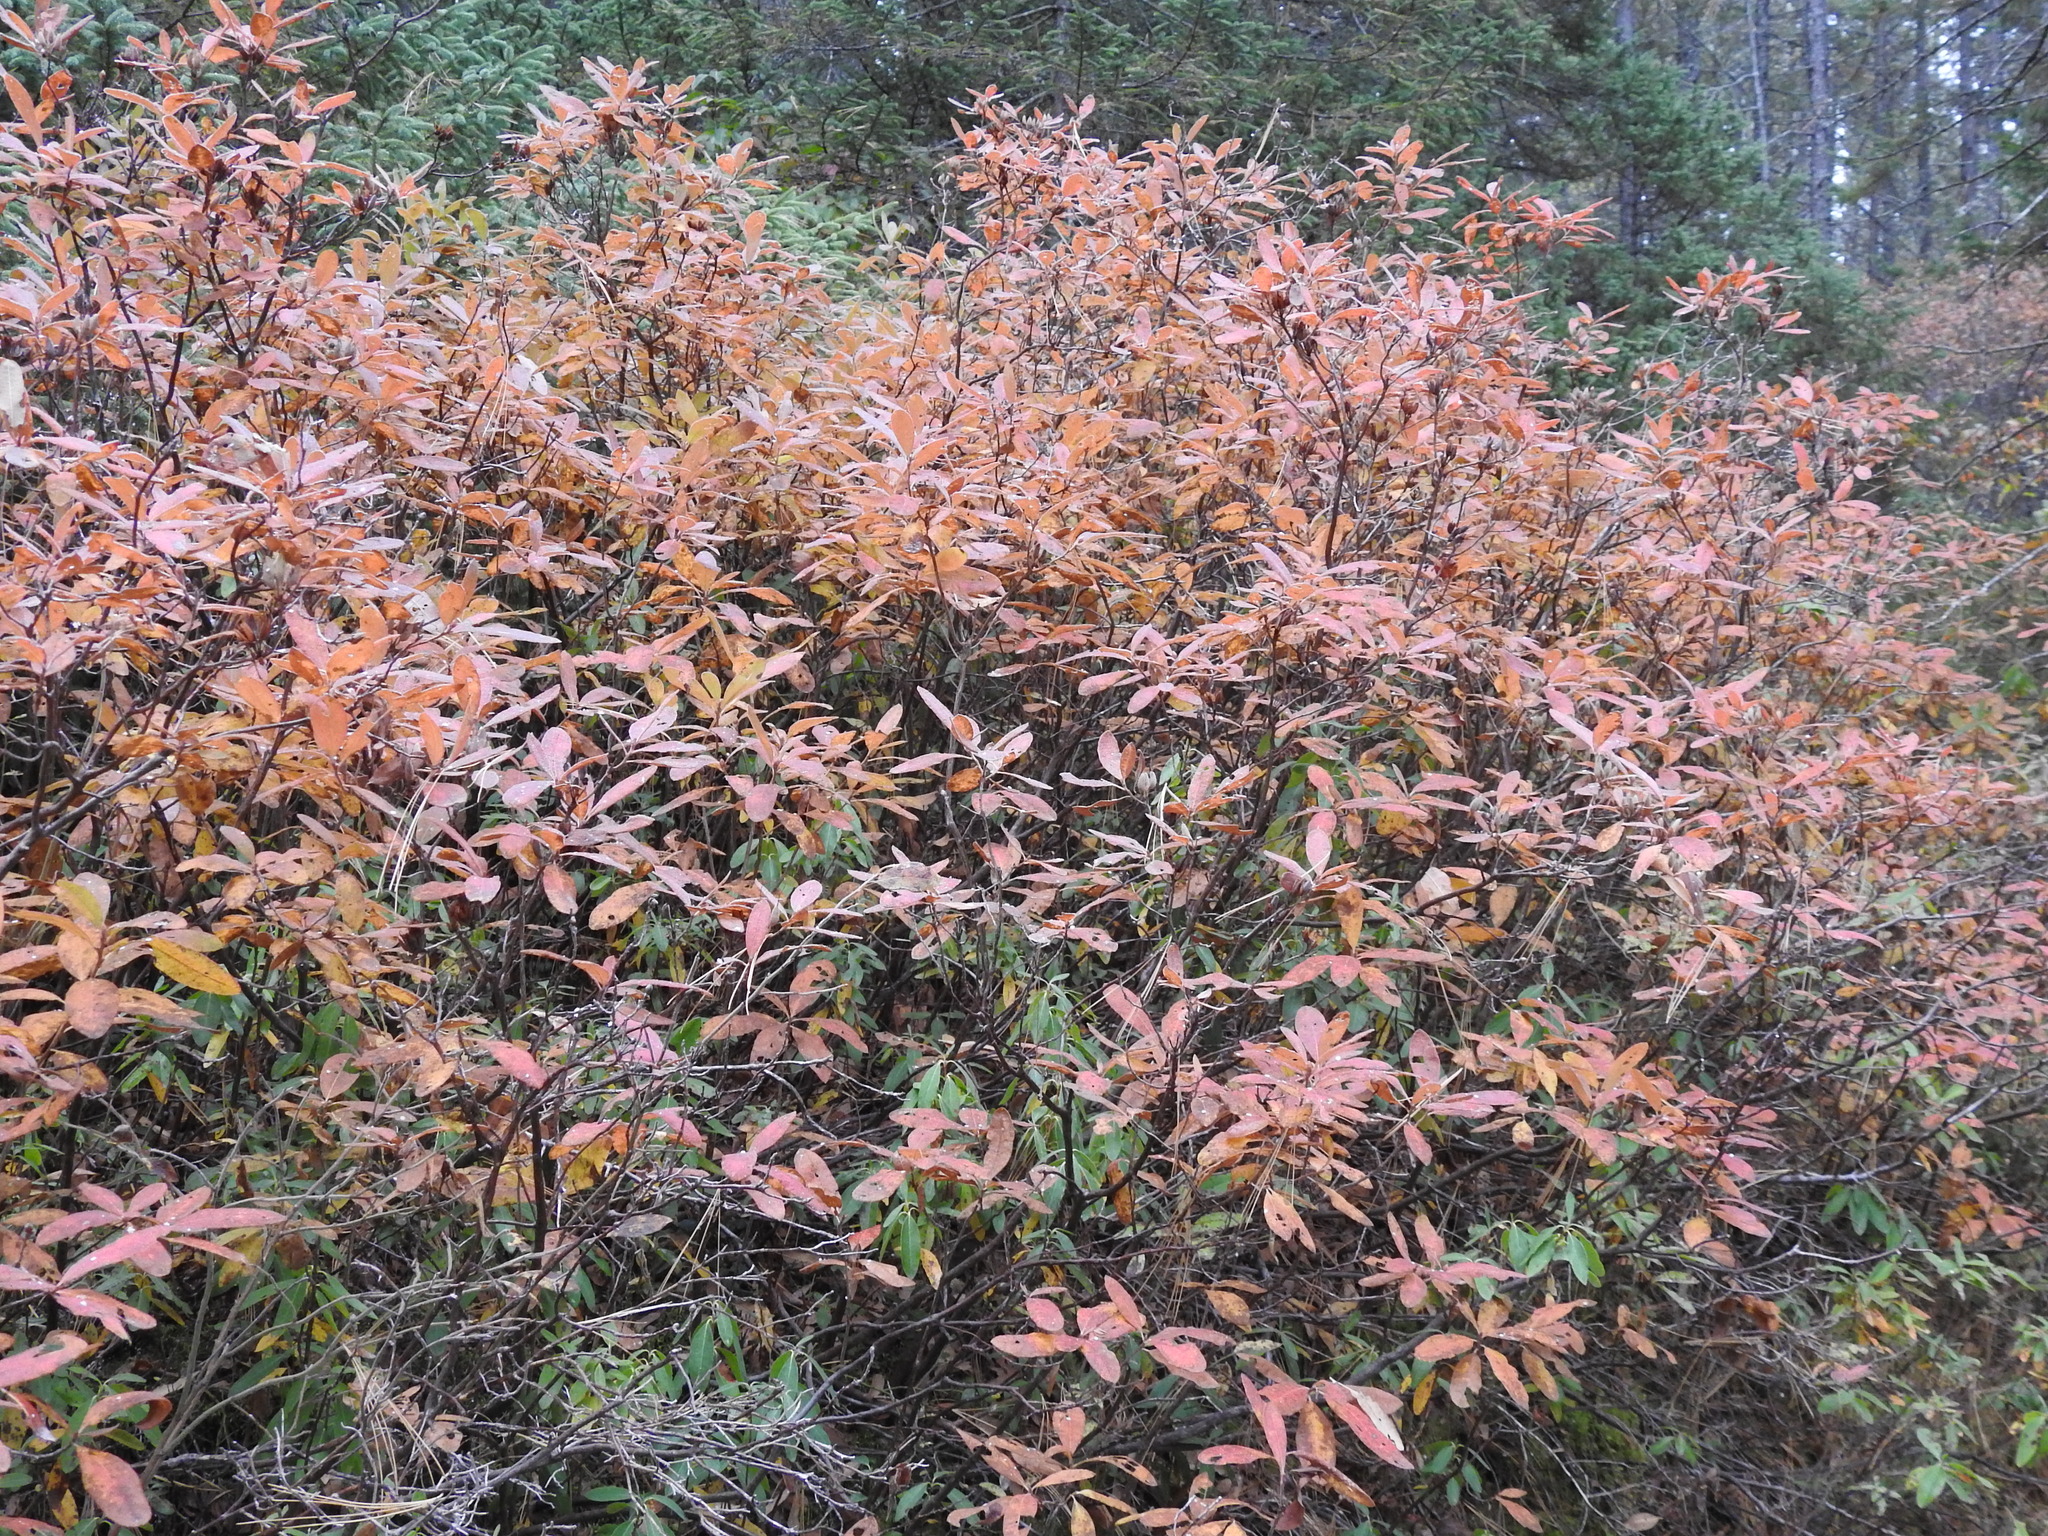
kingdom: Plantae
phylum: Tracheophyta
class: Magnoliopsida
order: Ericales
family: Ericaceae
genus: Rhododendron
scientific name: Rhododendron canadense
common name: Rhodora
